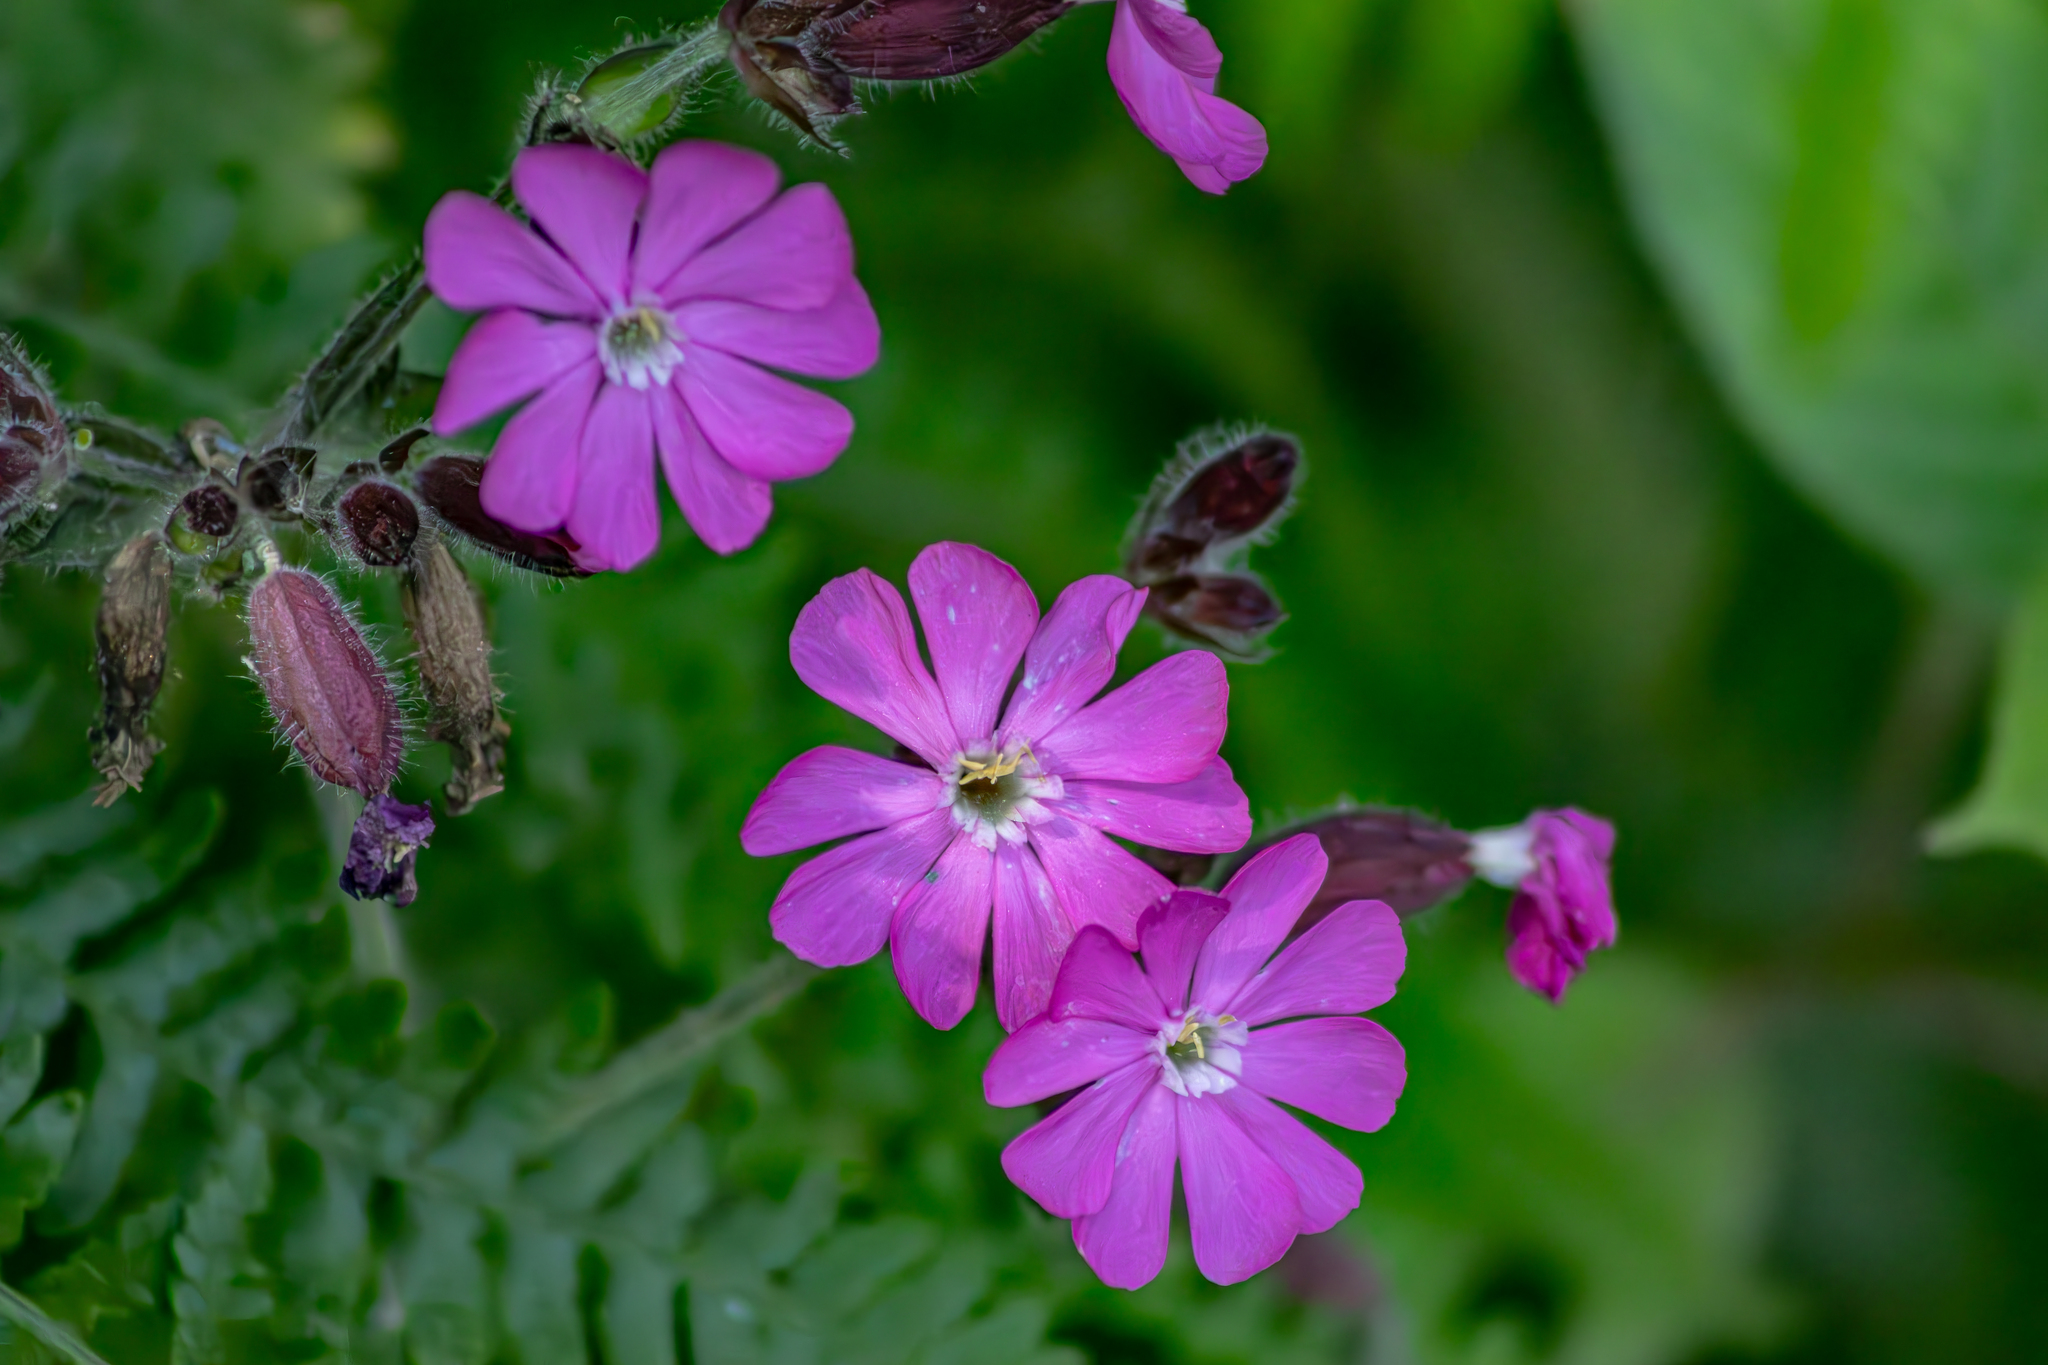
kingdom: Plantae
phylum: Tracheophyta
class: Magnoliopsida
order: Caryophyllales
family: Caryophyllaceae
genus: Silene
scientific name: Silene dioica
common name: Red campion
